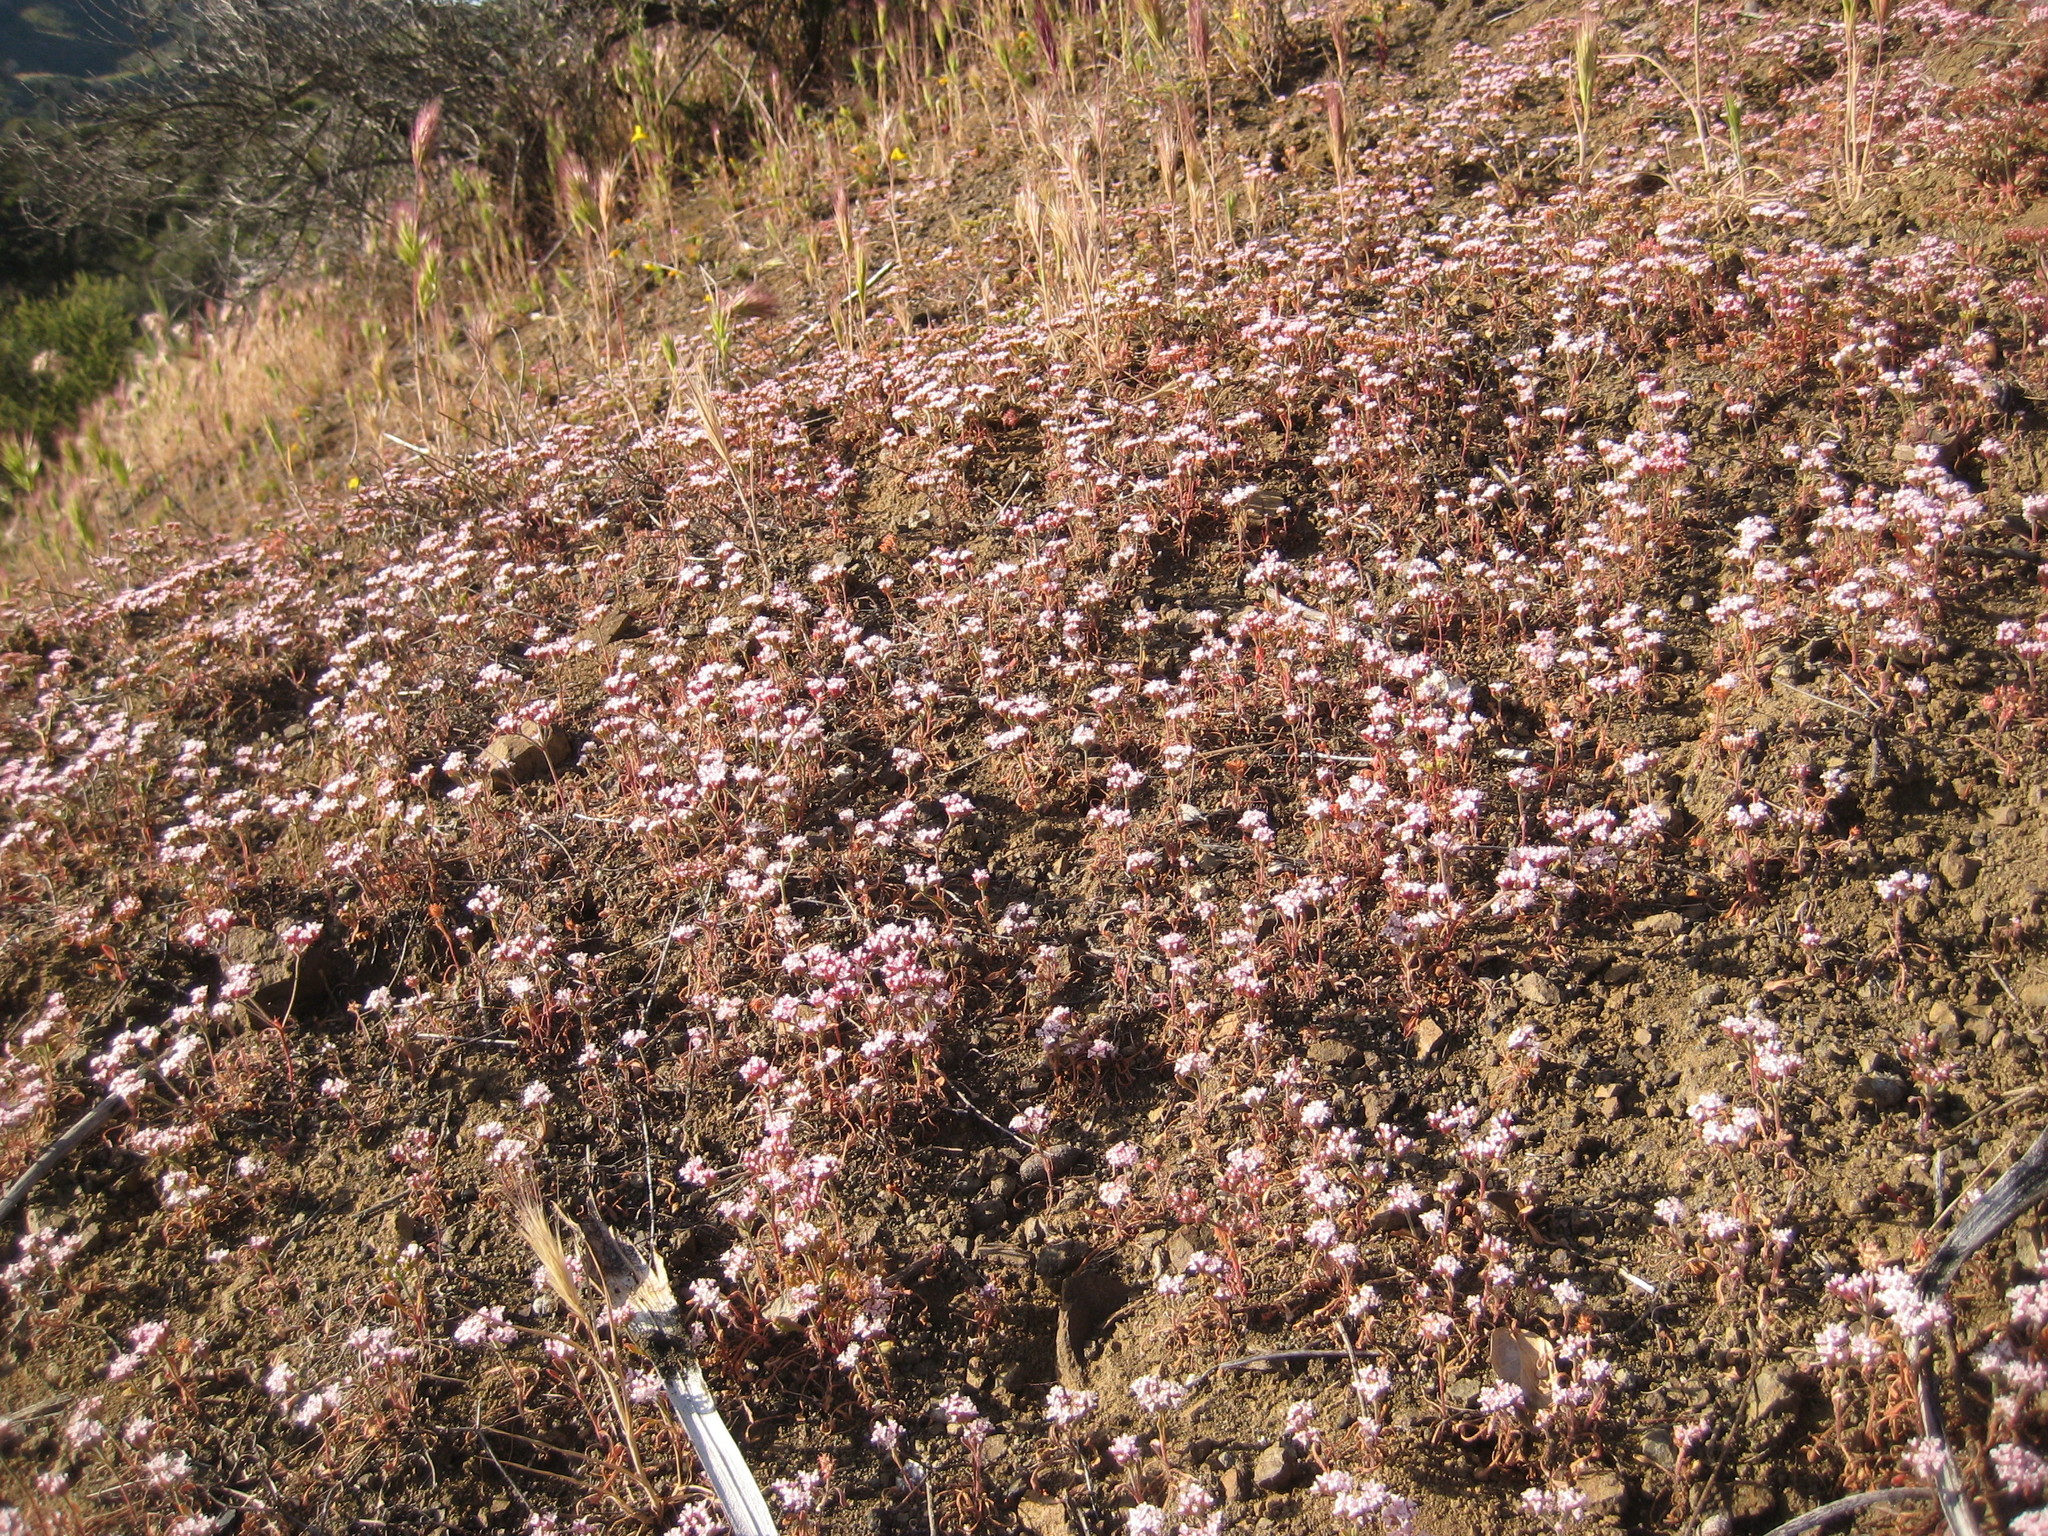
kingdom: Plantae
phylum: Tracheophyta
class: Magnoliopsida
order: Caryophyllales
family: Polygonaceae
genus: Chorizanthe
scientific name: Chorizanthe staticoides
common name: Turkish rugging
